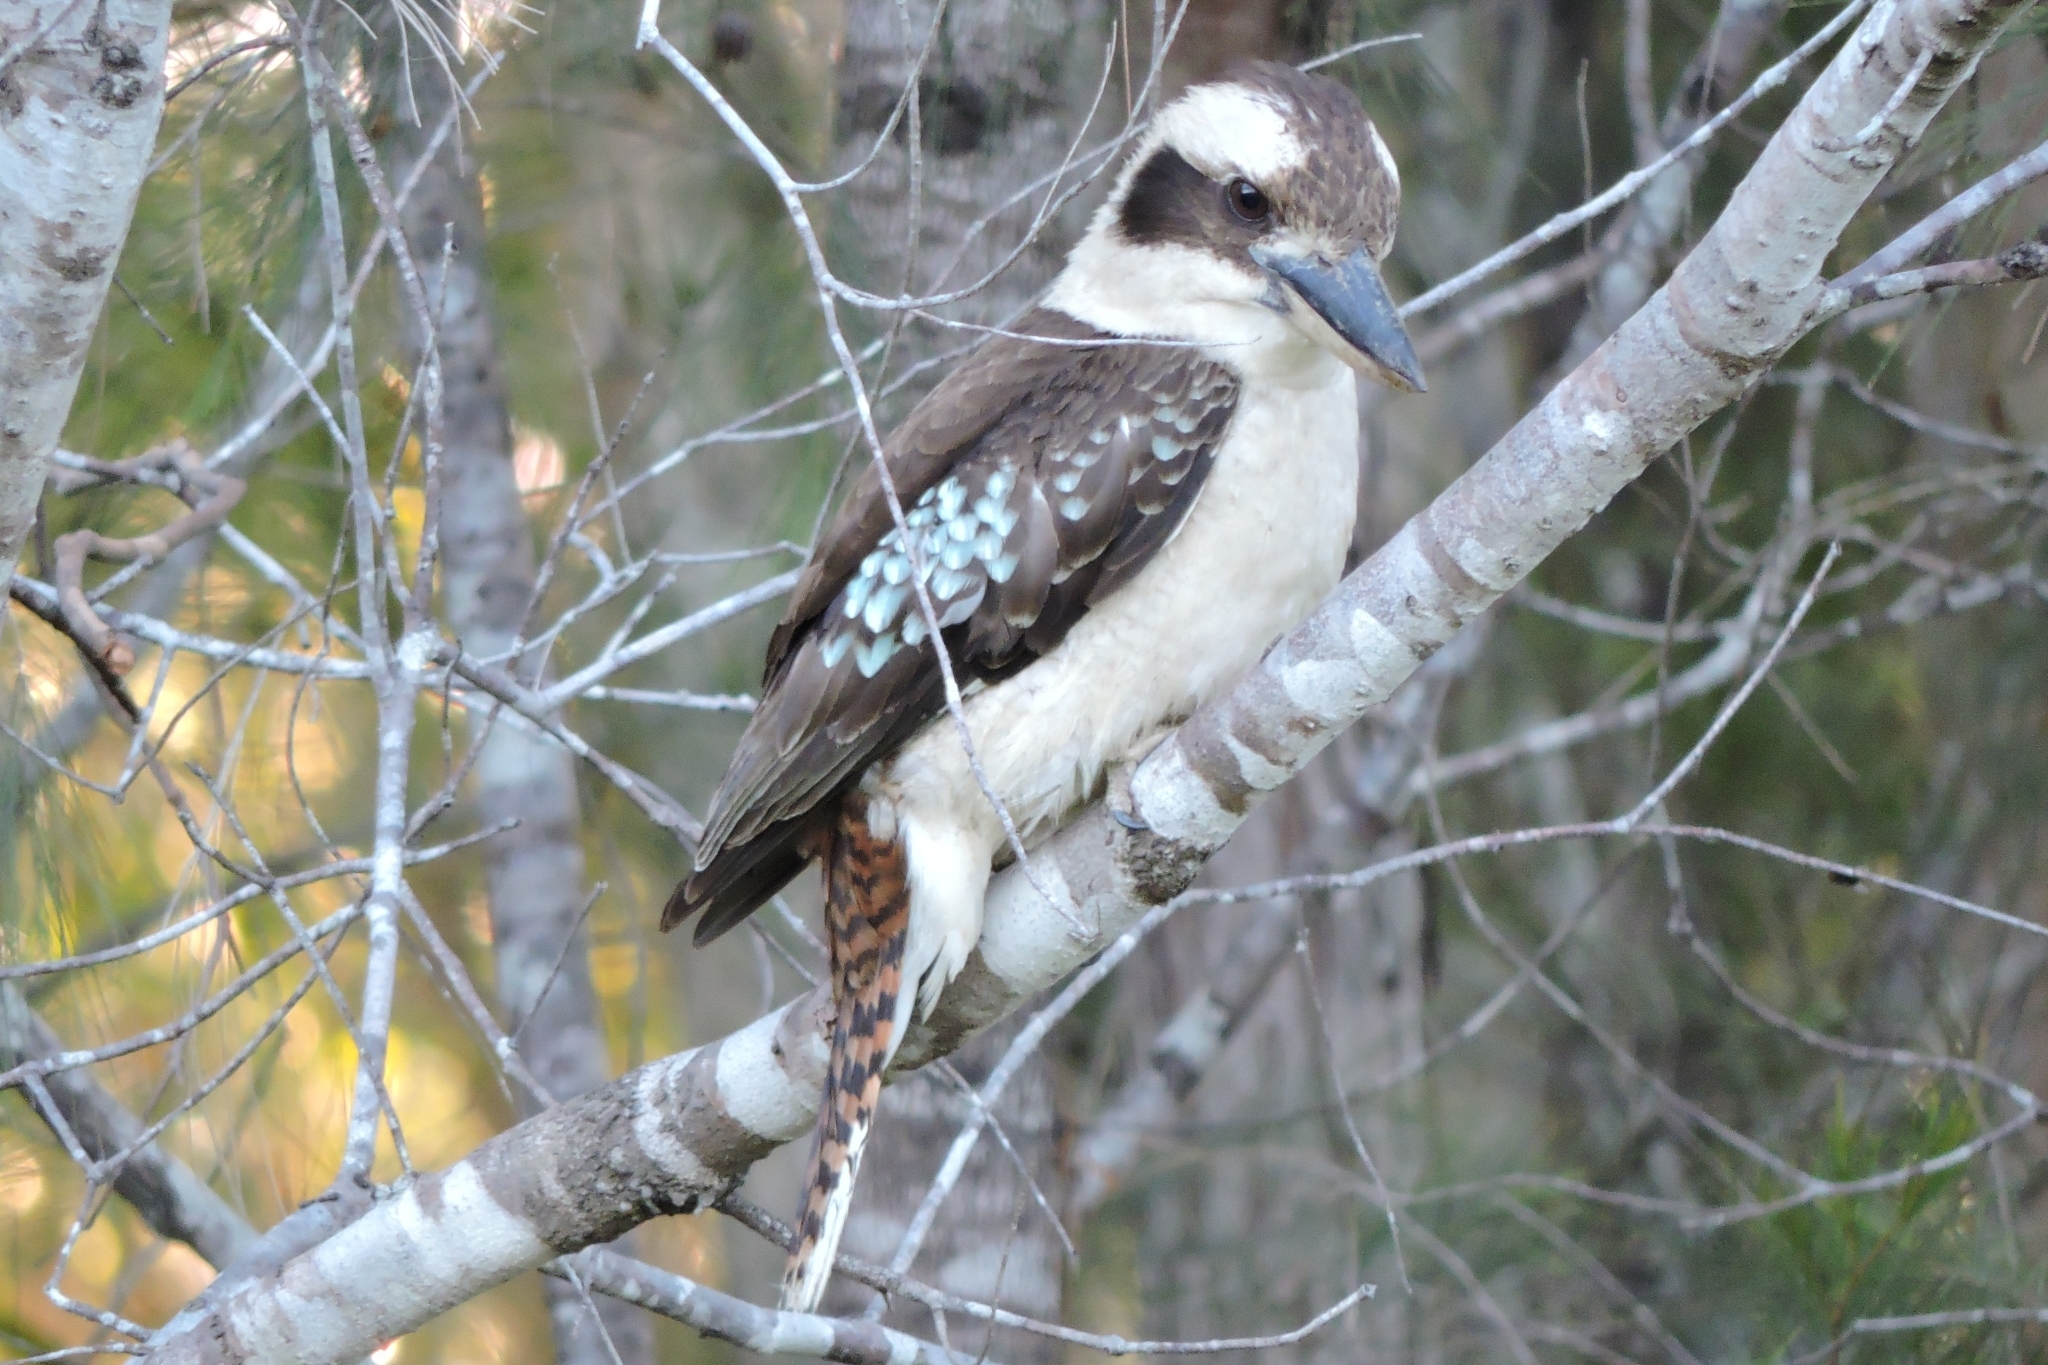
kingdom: Animalia
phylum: Chordata
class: Aves
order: Coraciiformes
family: Alcedinidae
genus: Dacelo
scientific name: Dacelo novaeguineae
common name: Laughing kookaburra
